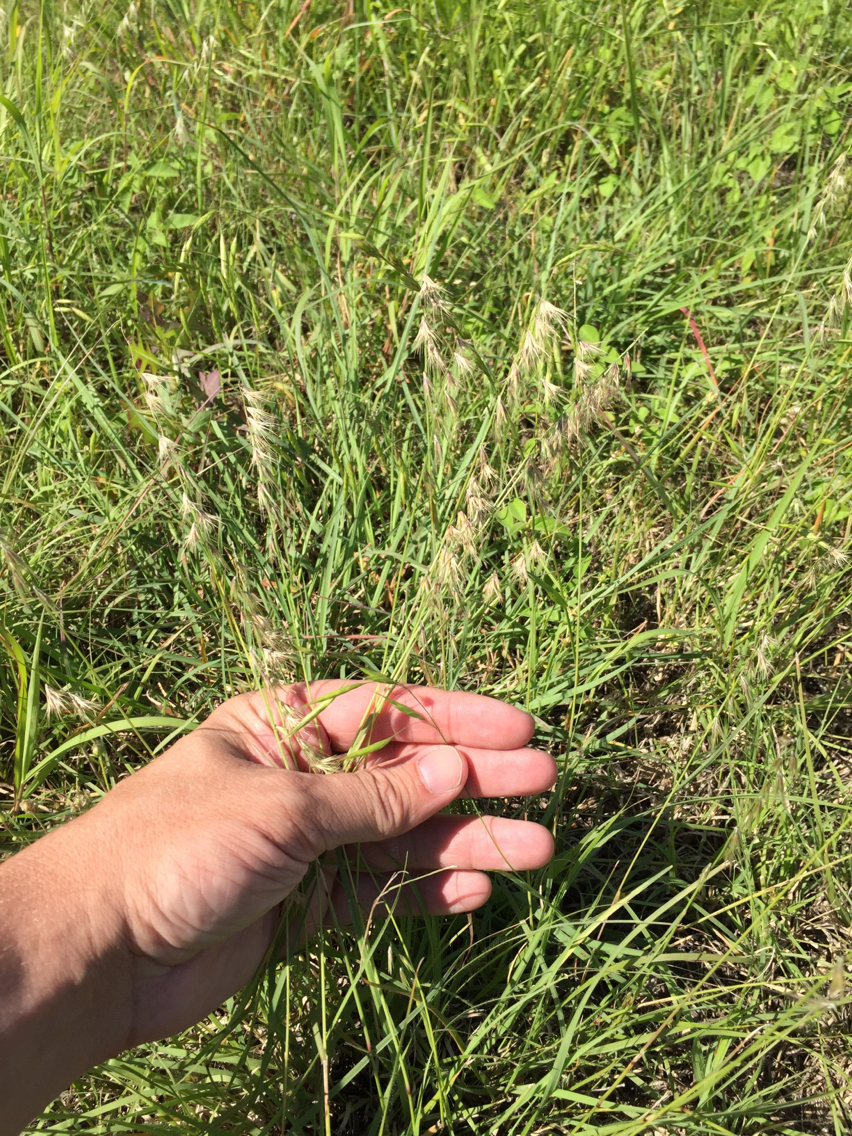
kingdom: Plantae
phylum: Tracheophyta
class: Liliopsida
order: Poales
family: Poaceae
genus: Bouteloua
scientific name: Bouteloua rigidiseta
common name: Texas grama
